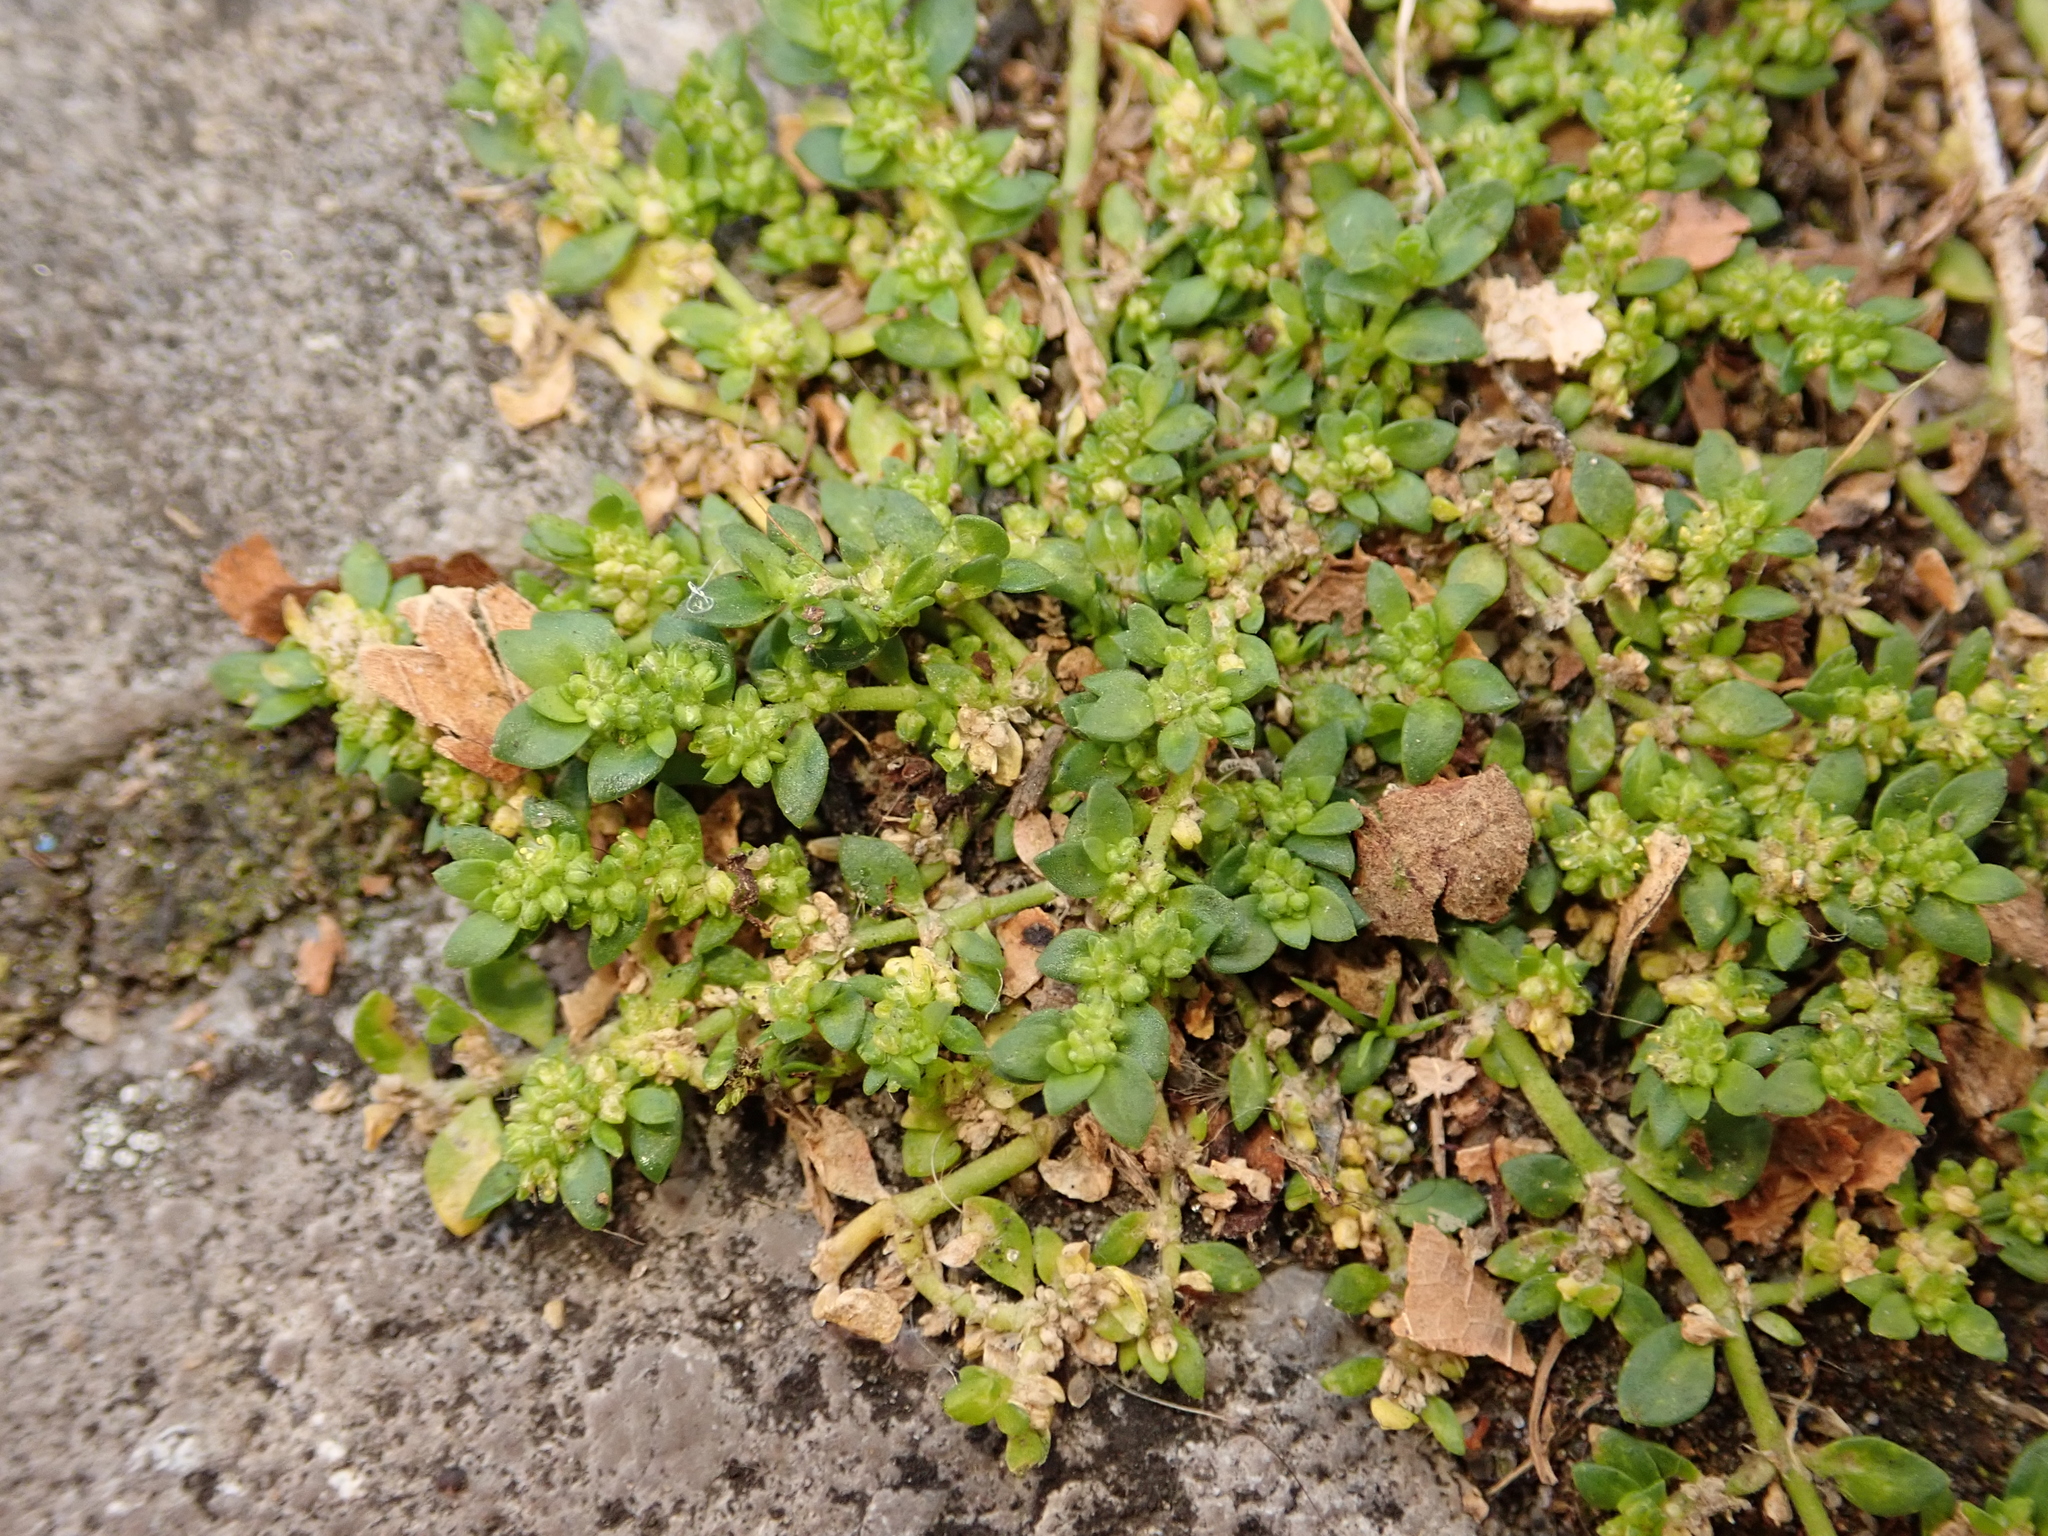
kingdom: Plantae
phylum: Tracheophyta
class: Magnoliopsida
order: Caryophyllales
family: Caryophyllaceae
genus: Herniaria
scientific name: Herniaria glabra
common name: Smooth rupturewort
